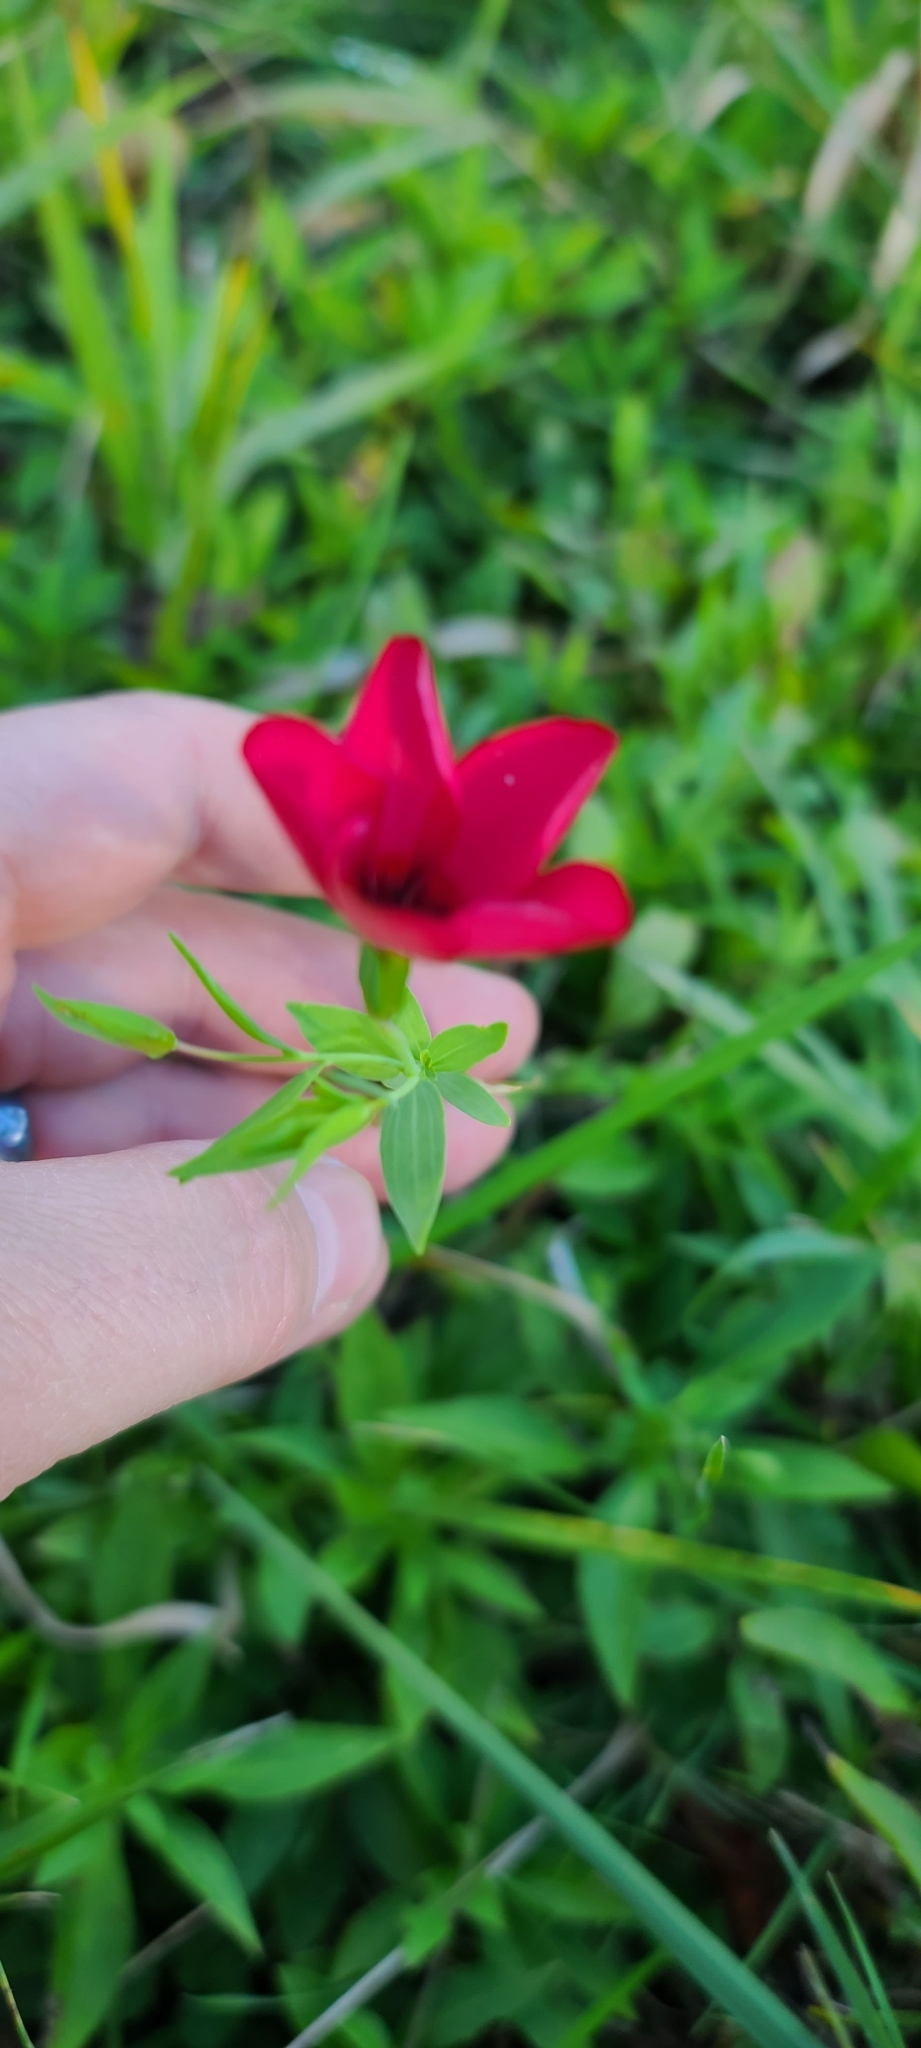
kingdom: Plantae
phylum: Tracheophyta
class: Magnoliopsida
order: Malpighiales
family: Linaceae
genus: Linum
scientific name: Linum grandiflorum
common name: Crimson flax
